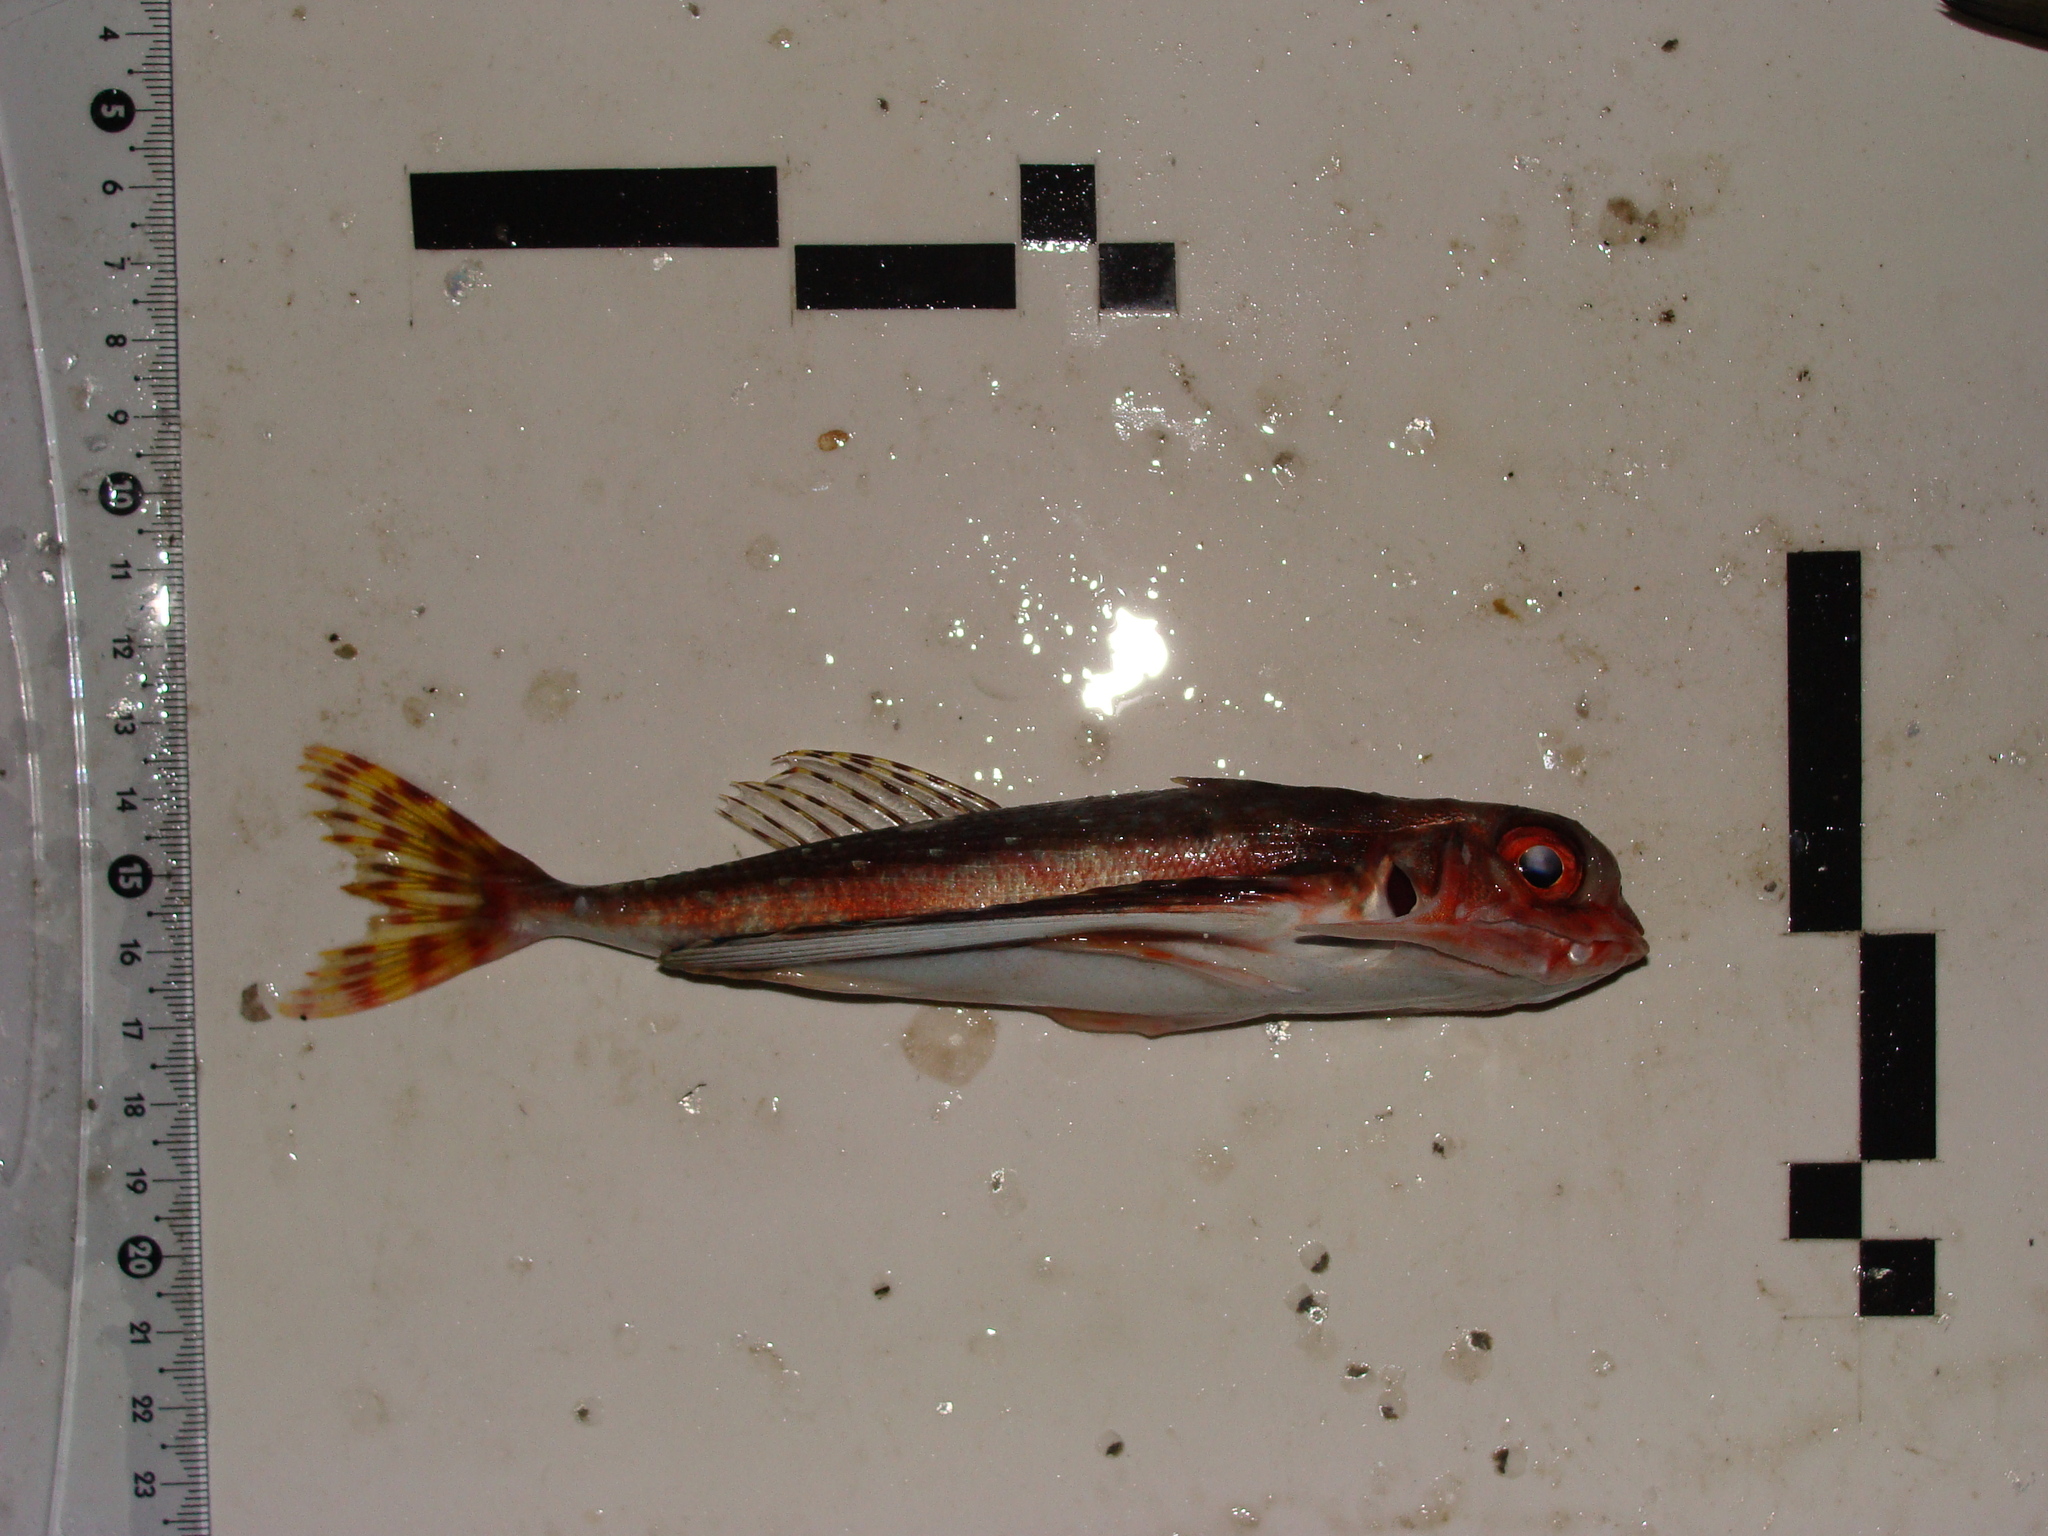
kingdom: Animalia
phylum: Chordata
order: Scorpaeniformes
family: Dactylopteridae
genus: Dactylopterus
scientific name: Dactylopterus volitans
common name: Flying gurnard
